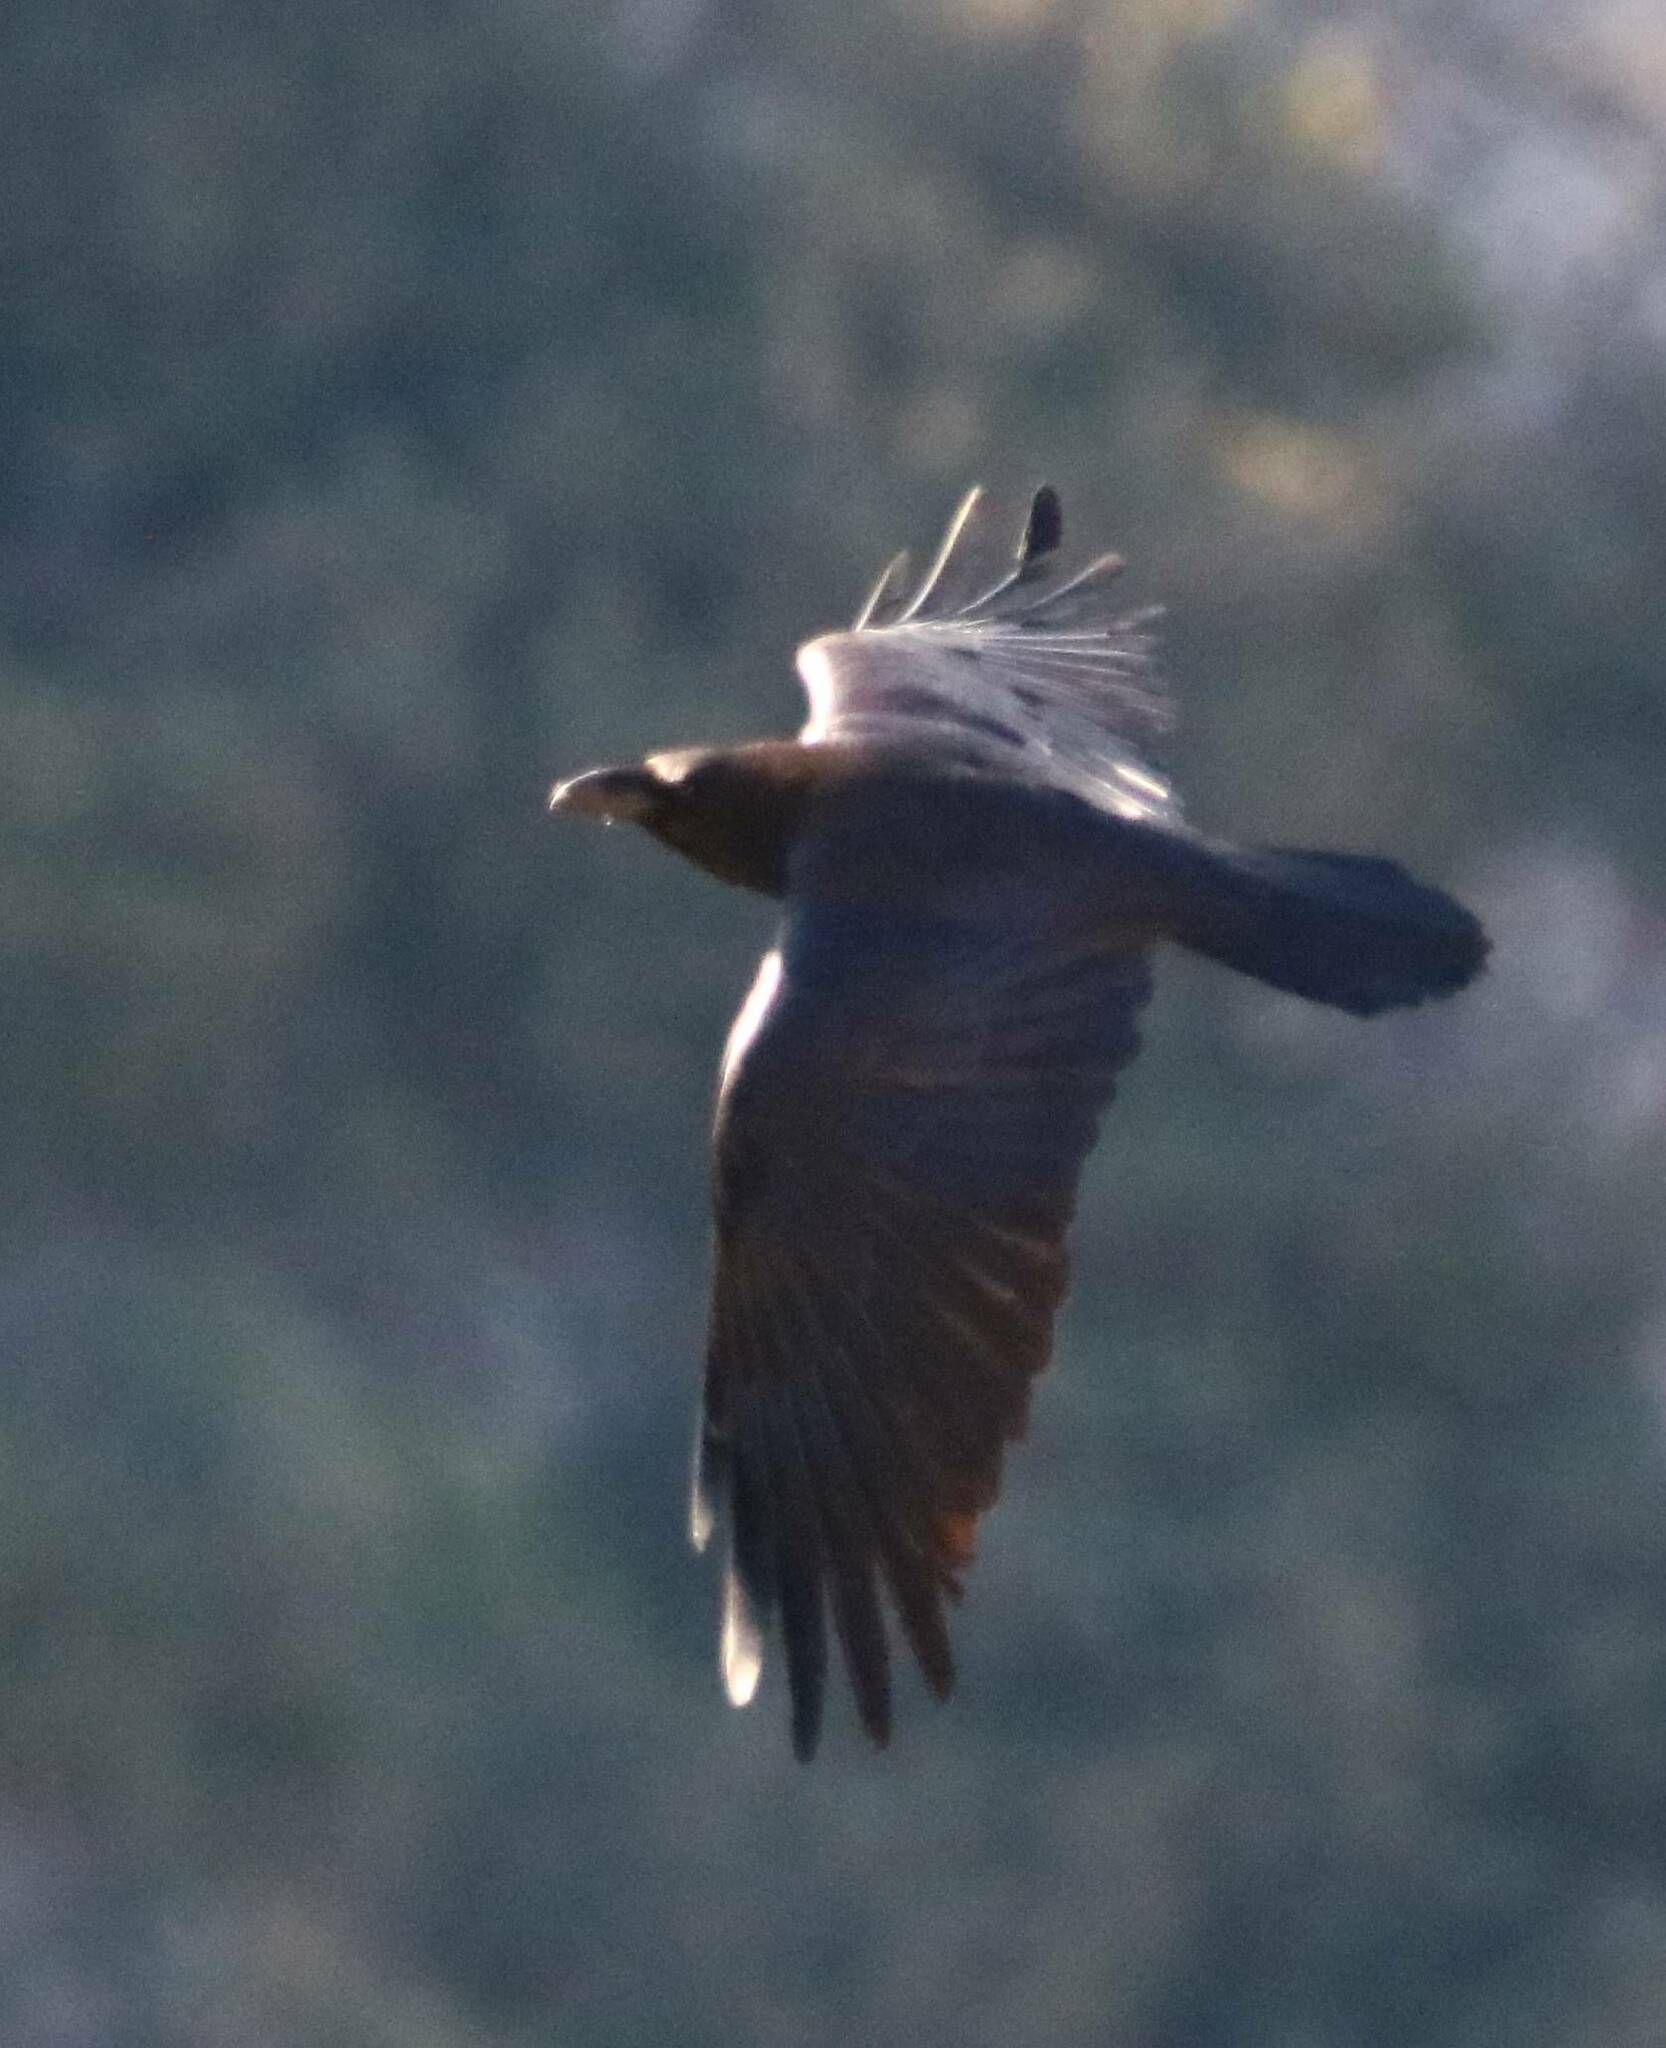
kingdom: Animalia
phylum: Chordata
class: Aves
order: Passeriformes
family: Corvidae
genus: Corvus
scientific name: Corvus corax
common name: Common raven
